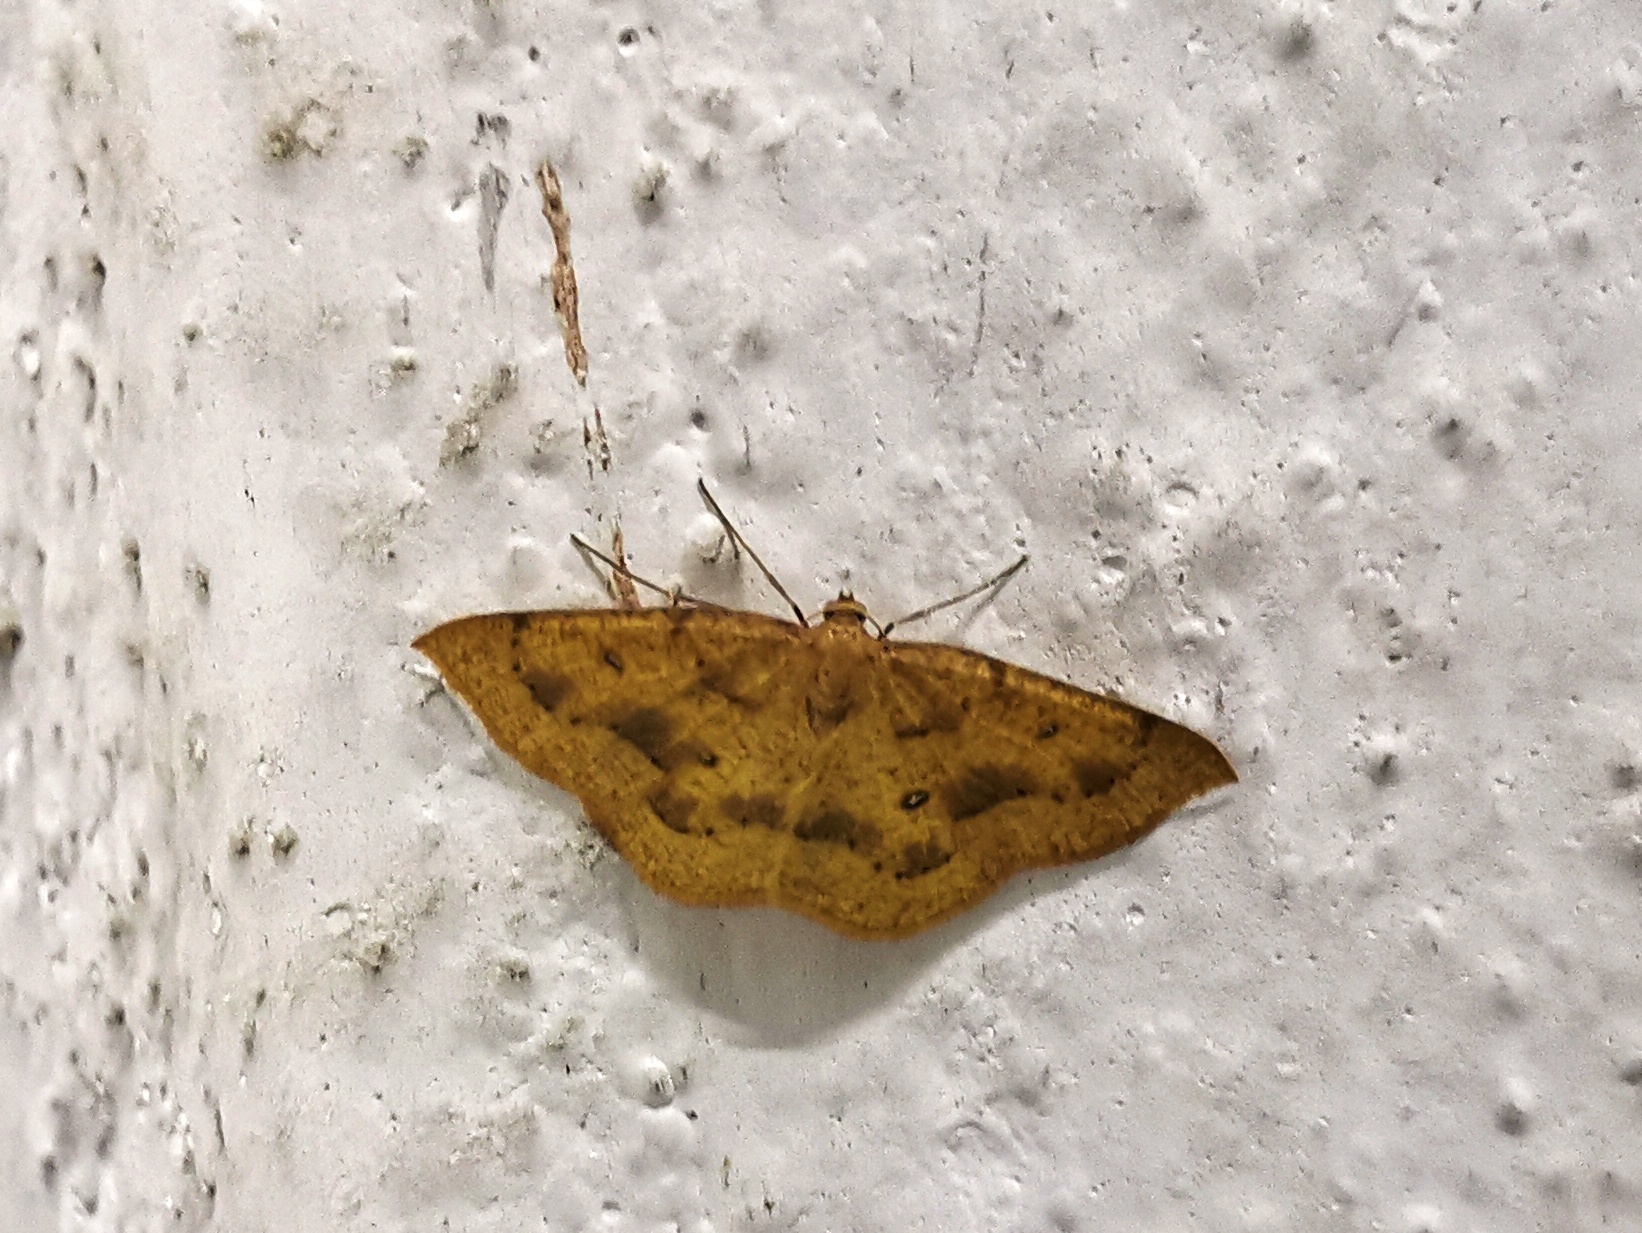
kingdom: Animalia
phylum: Arthropoda
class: Insecta
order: Lepidoptera
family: Geometridae
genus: Palaeaspilates
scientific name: Palaeaspilates Anisephyra ocularia
